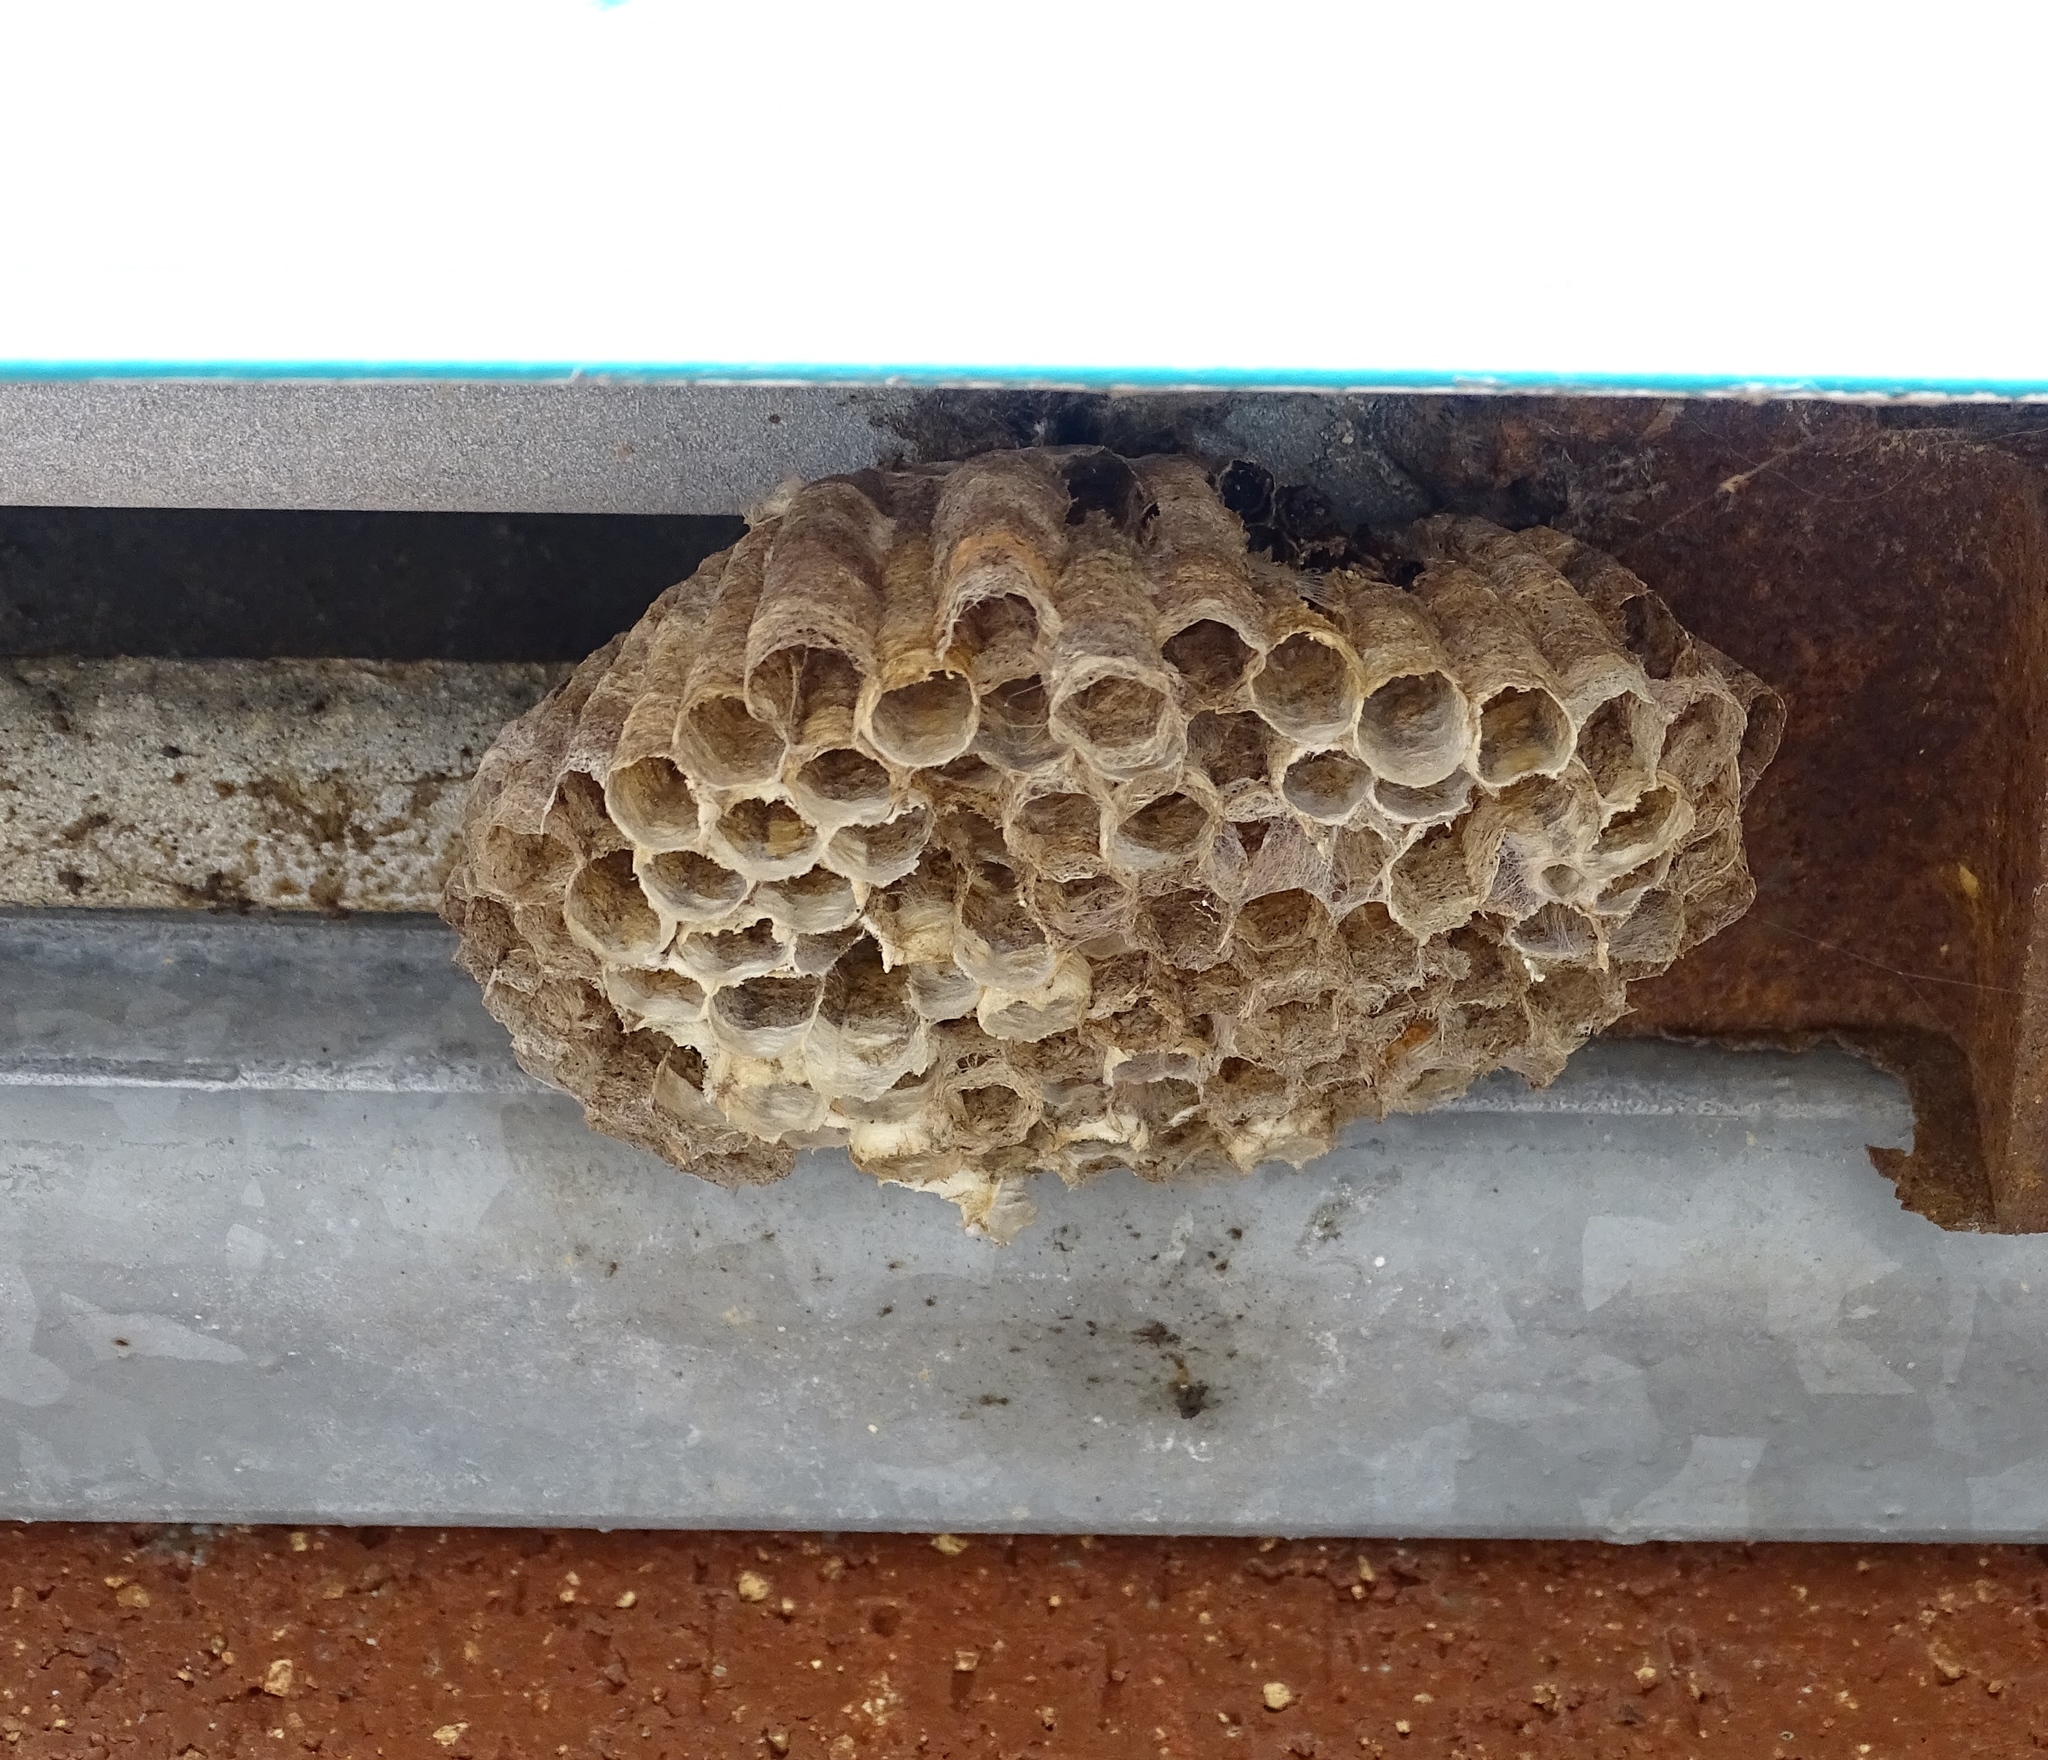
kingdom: Animalia
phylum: Arthropoda
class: Insecta
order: Hymenoptera
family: Eumenidae
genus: Polistes
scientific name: Polistes
